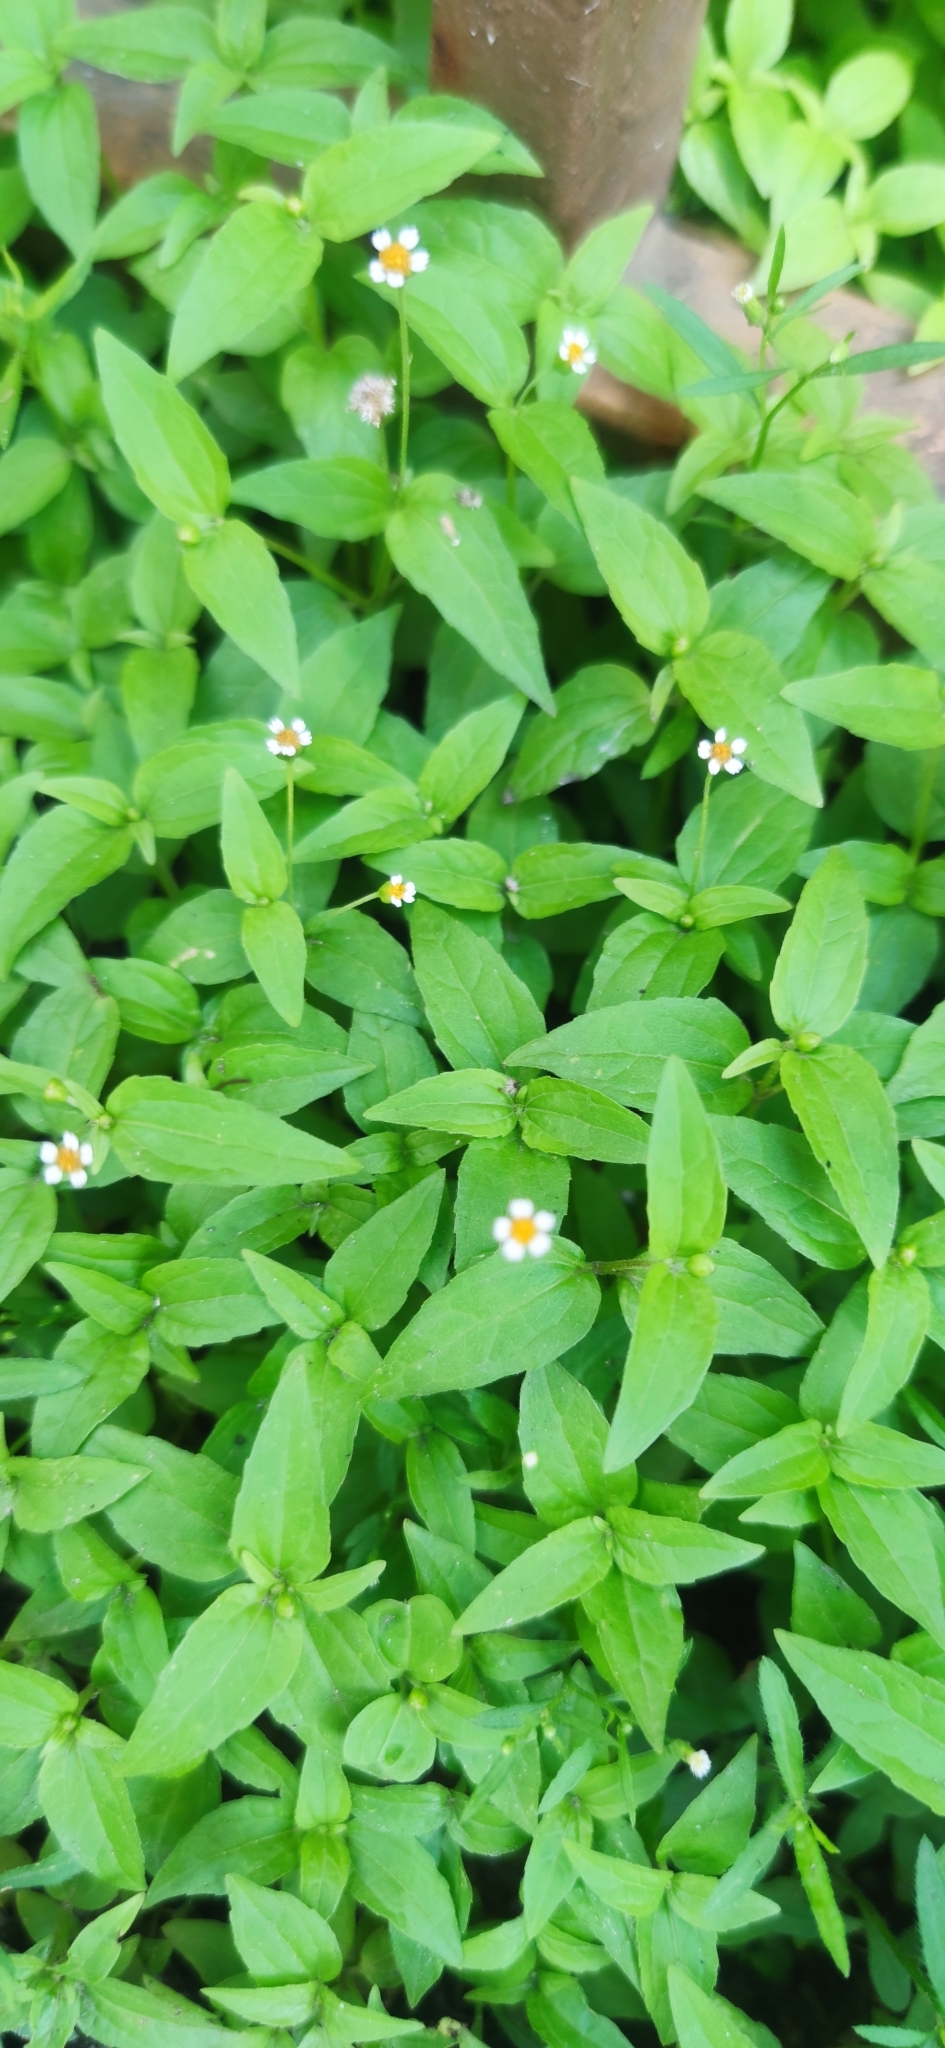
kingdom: Plantae
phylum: Tracheophyta
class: Magnoliopsida
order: Asterales
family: Asteraceae
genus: Galinsoga
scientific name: Galinsoga parviflora
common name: Gallant soldier
